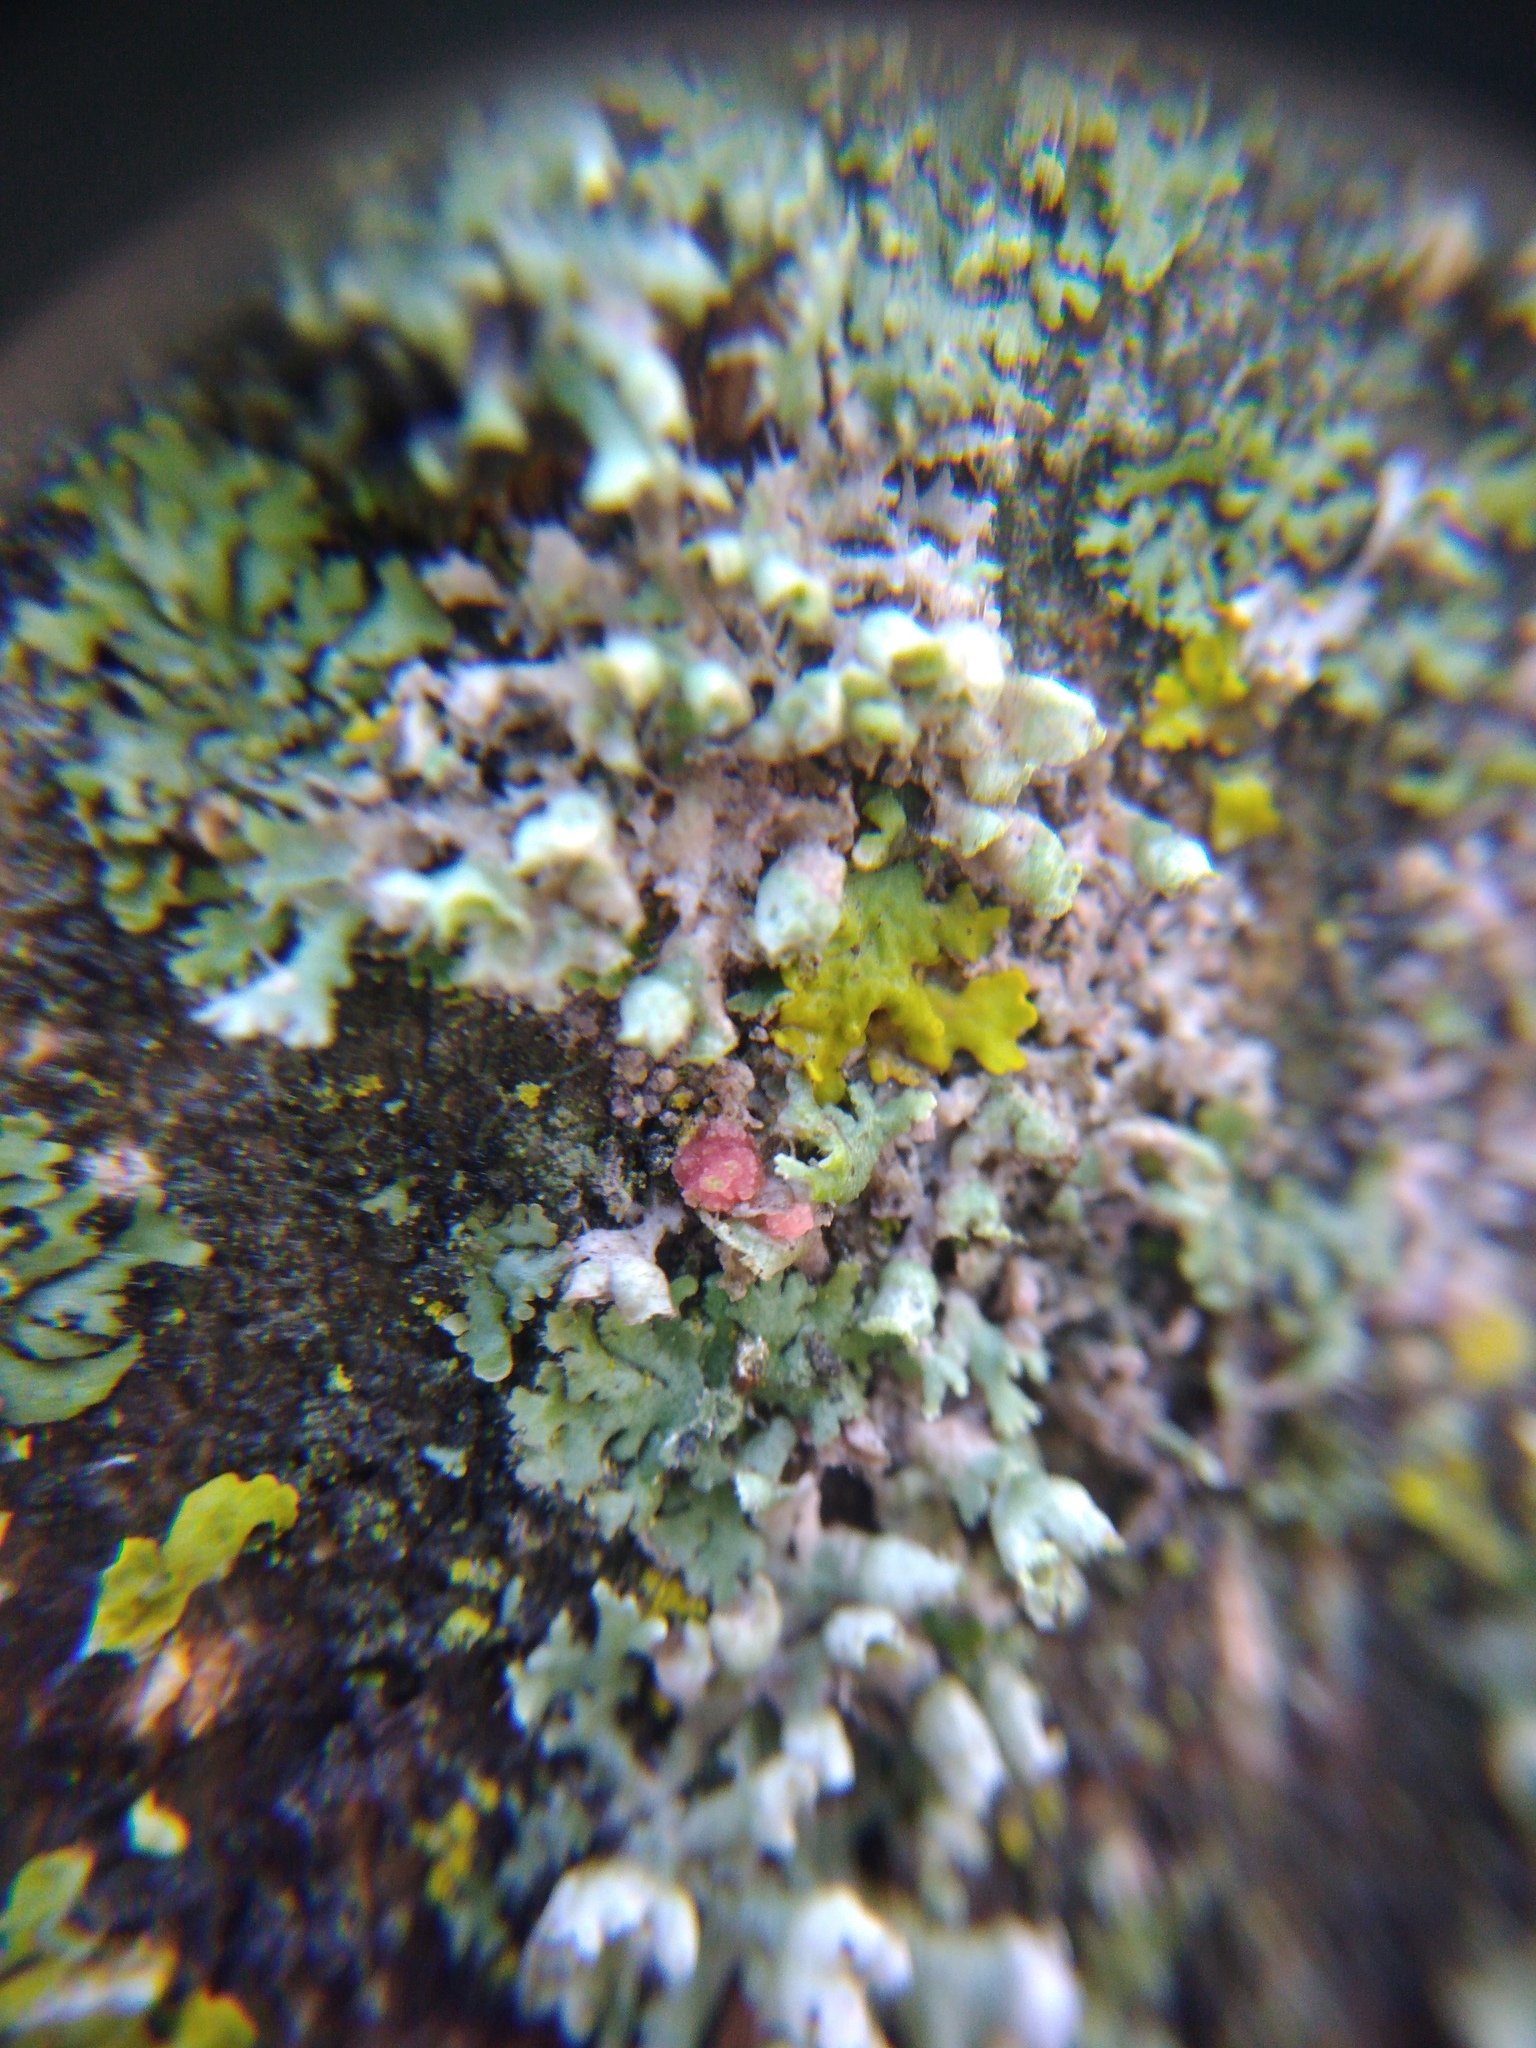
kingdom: Fungi
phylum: Ascomycota
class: Sordariomycetes
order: Hypocreales
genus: Illosporiopsis
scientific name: Illosporiopsis christiansenii
